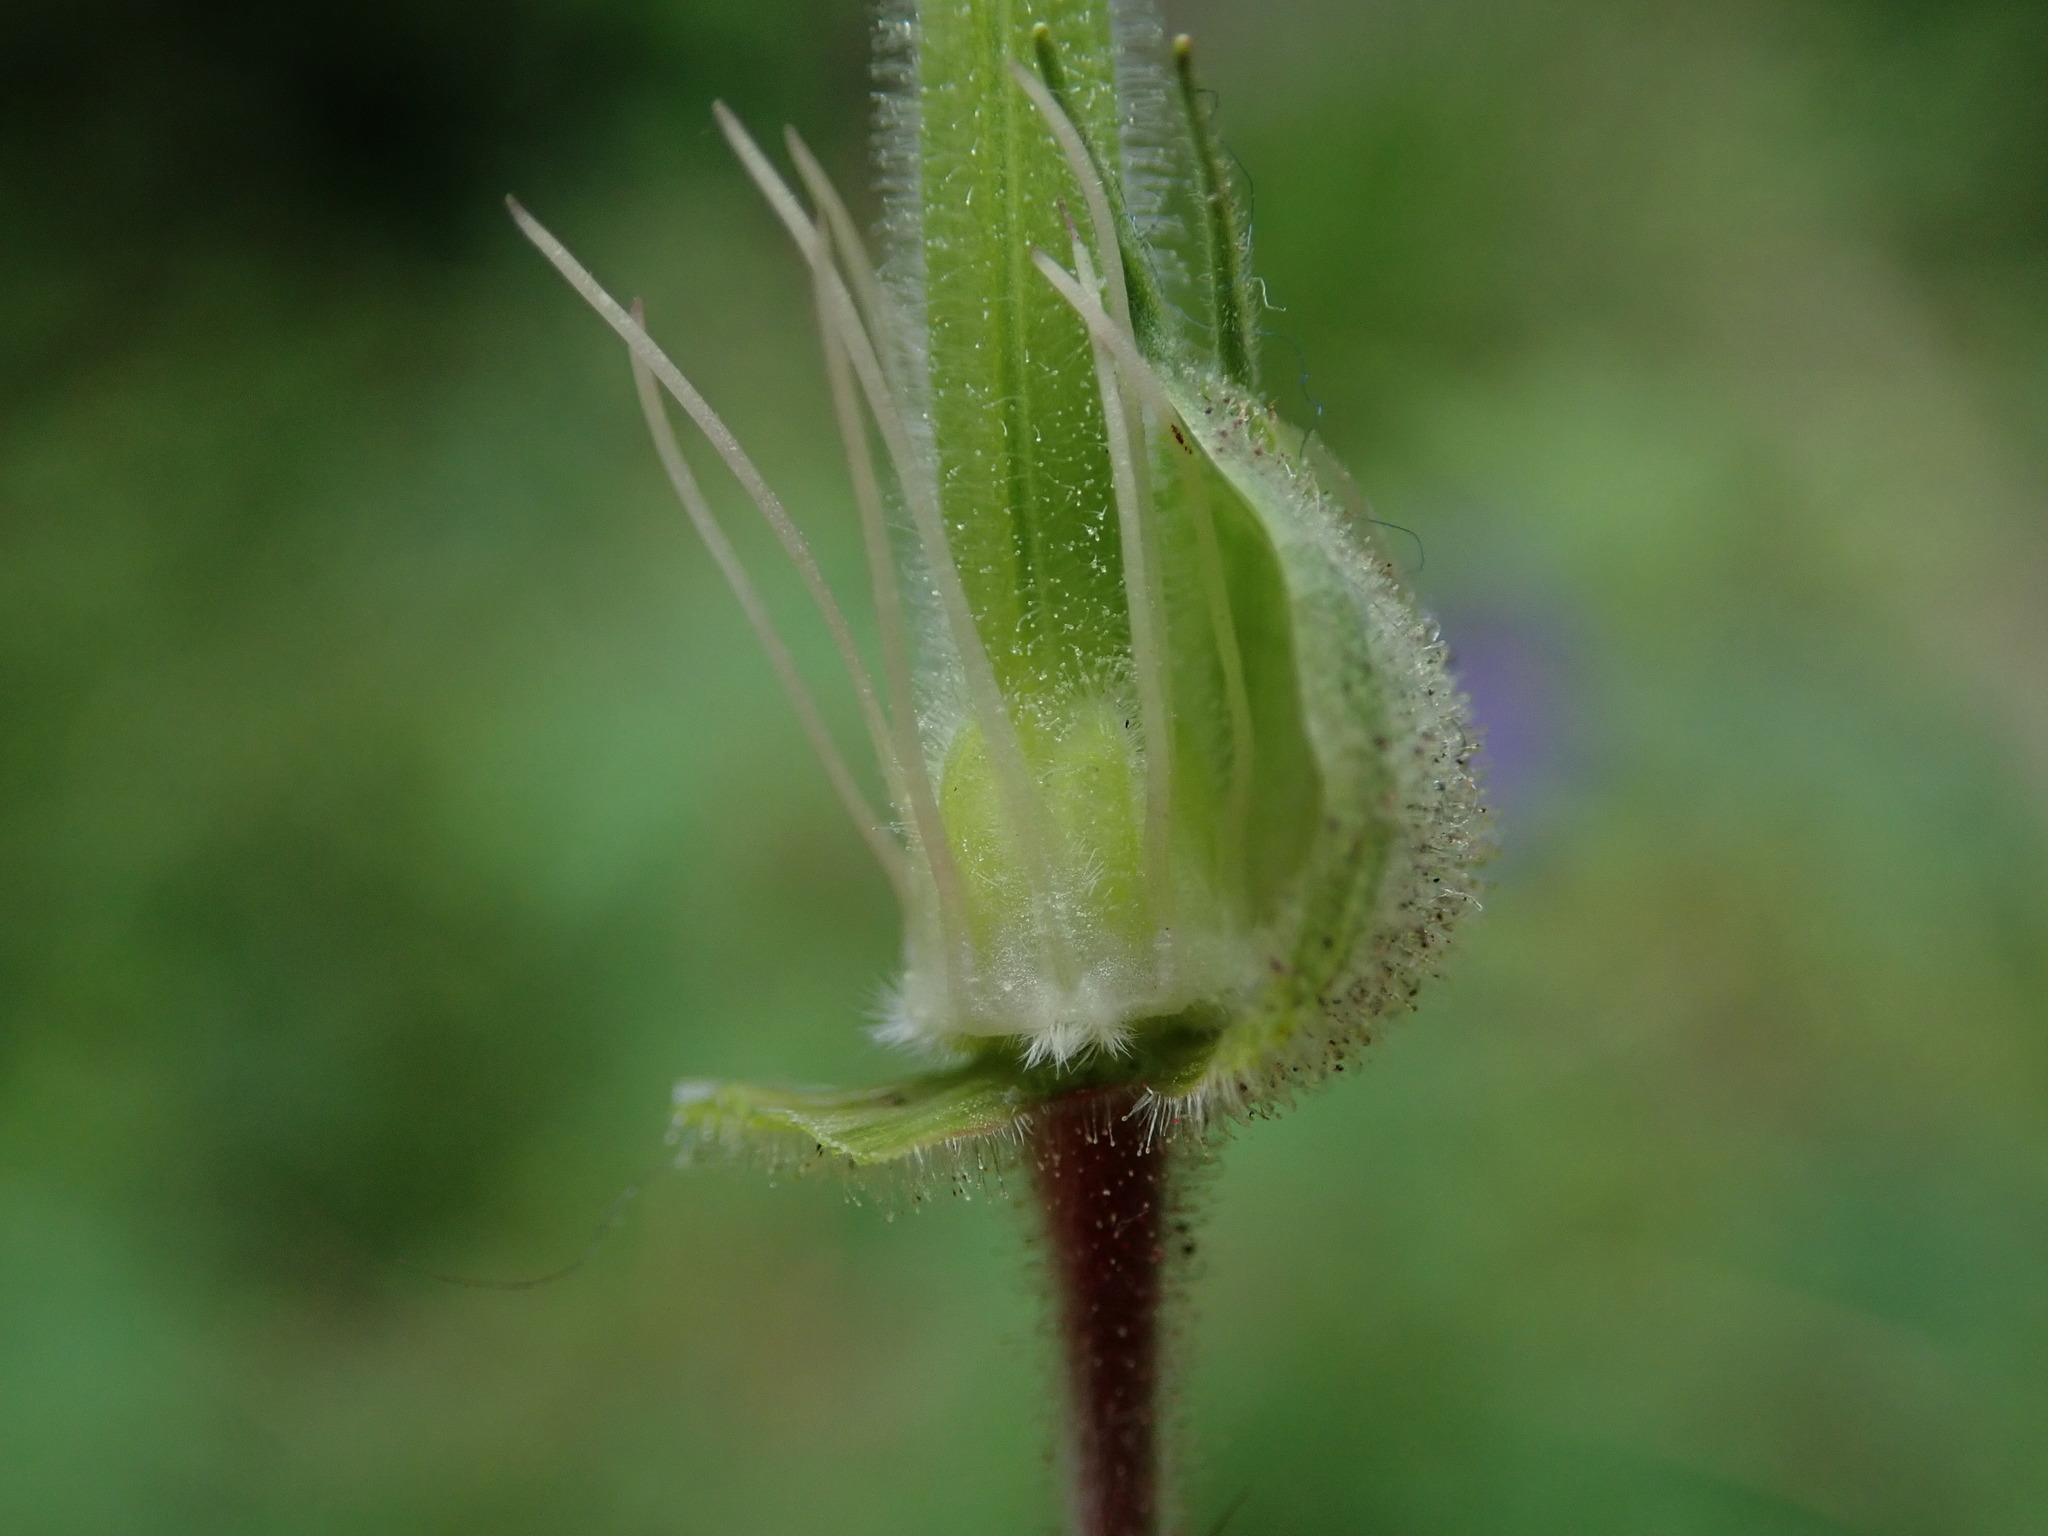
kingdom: Plantae
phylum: Tracheophyta
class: Magnoliopsida
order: Geraniales
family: Geraniaceae
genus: Geranium
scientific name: Geranium pratense
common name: Meadow crane's-bill
